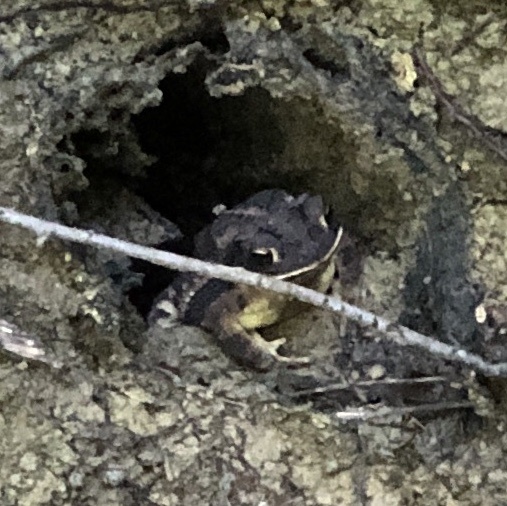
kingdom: Animalia
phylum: Chordata
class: Amphibia
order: Anura
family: Bufonidae
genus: Incilius
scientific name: Incilius nebulifer
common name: Gulf coast toad
